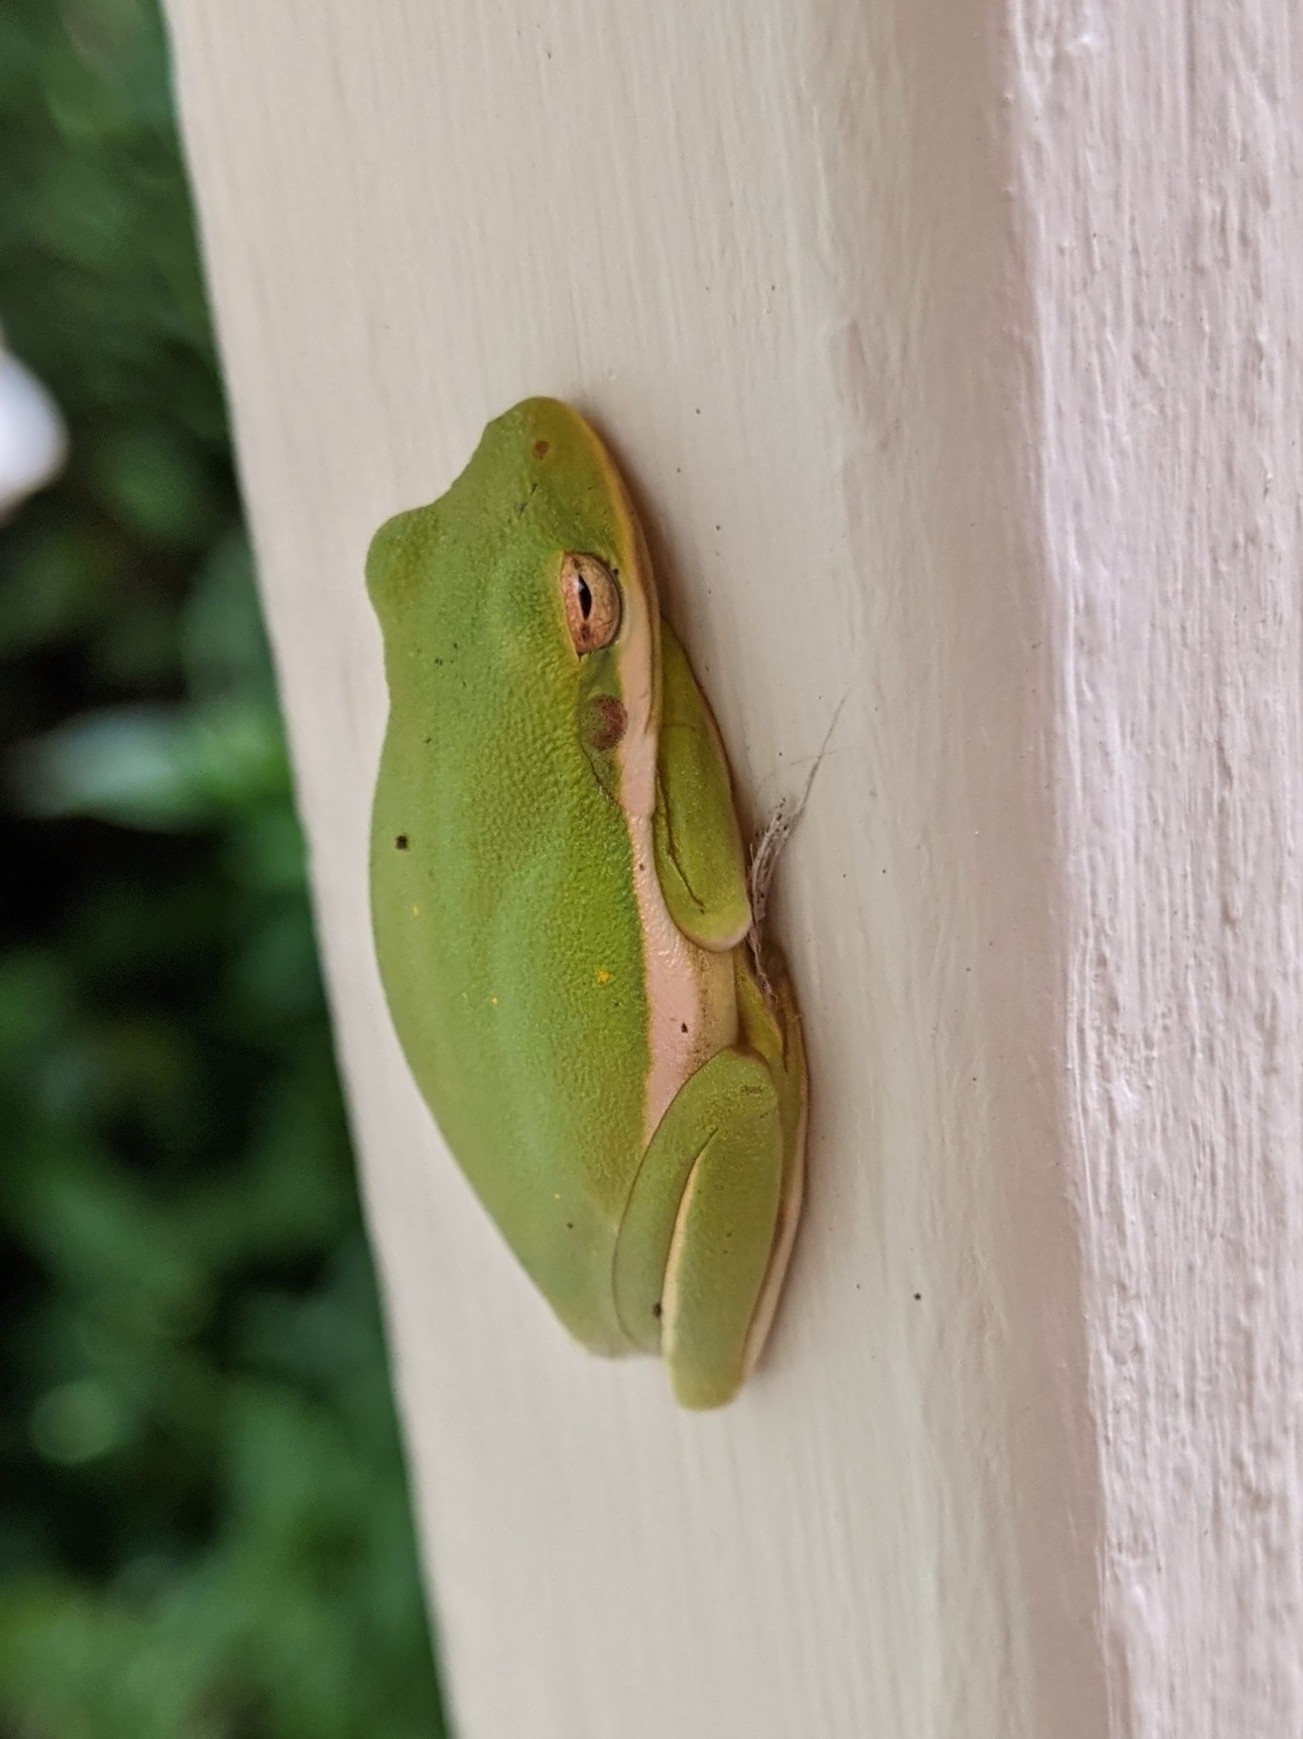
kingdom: Animalia
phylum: Chordata
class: Amphibia
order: Anura
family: Hylidae
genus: Dryophytes
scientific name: Dryophytes cinereus
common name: Green treefrog
